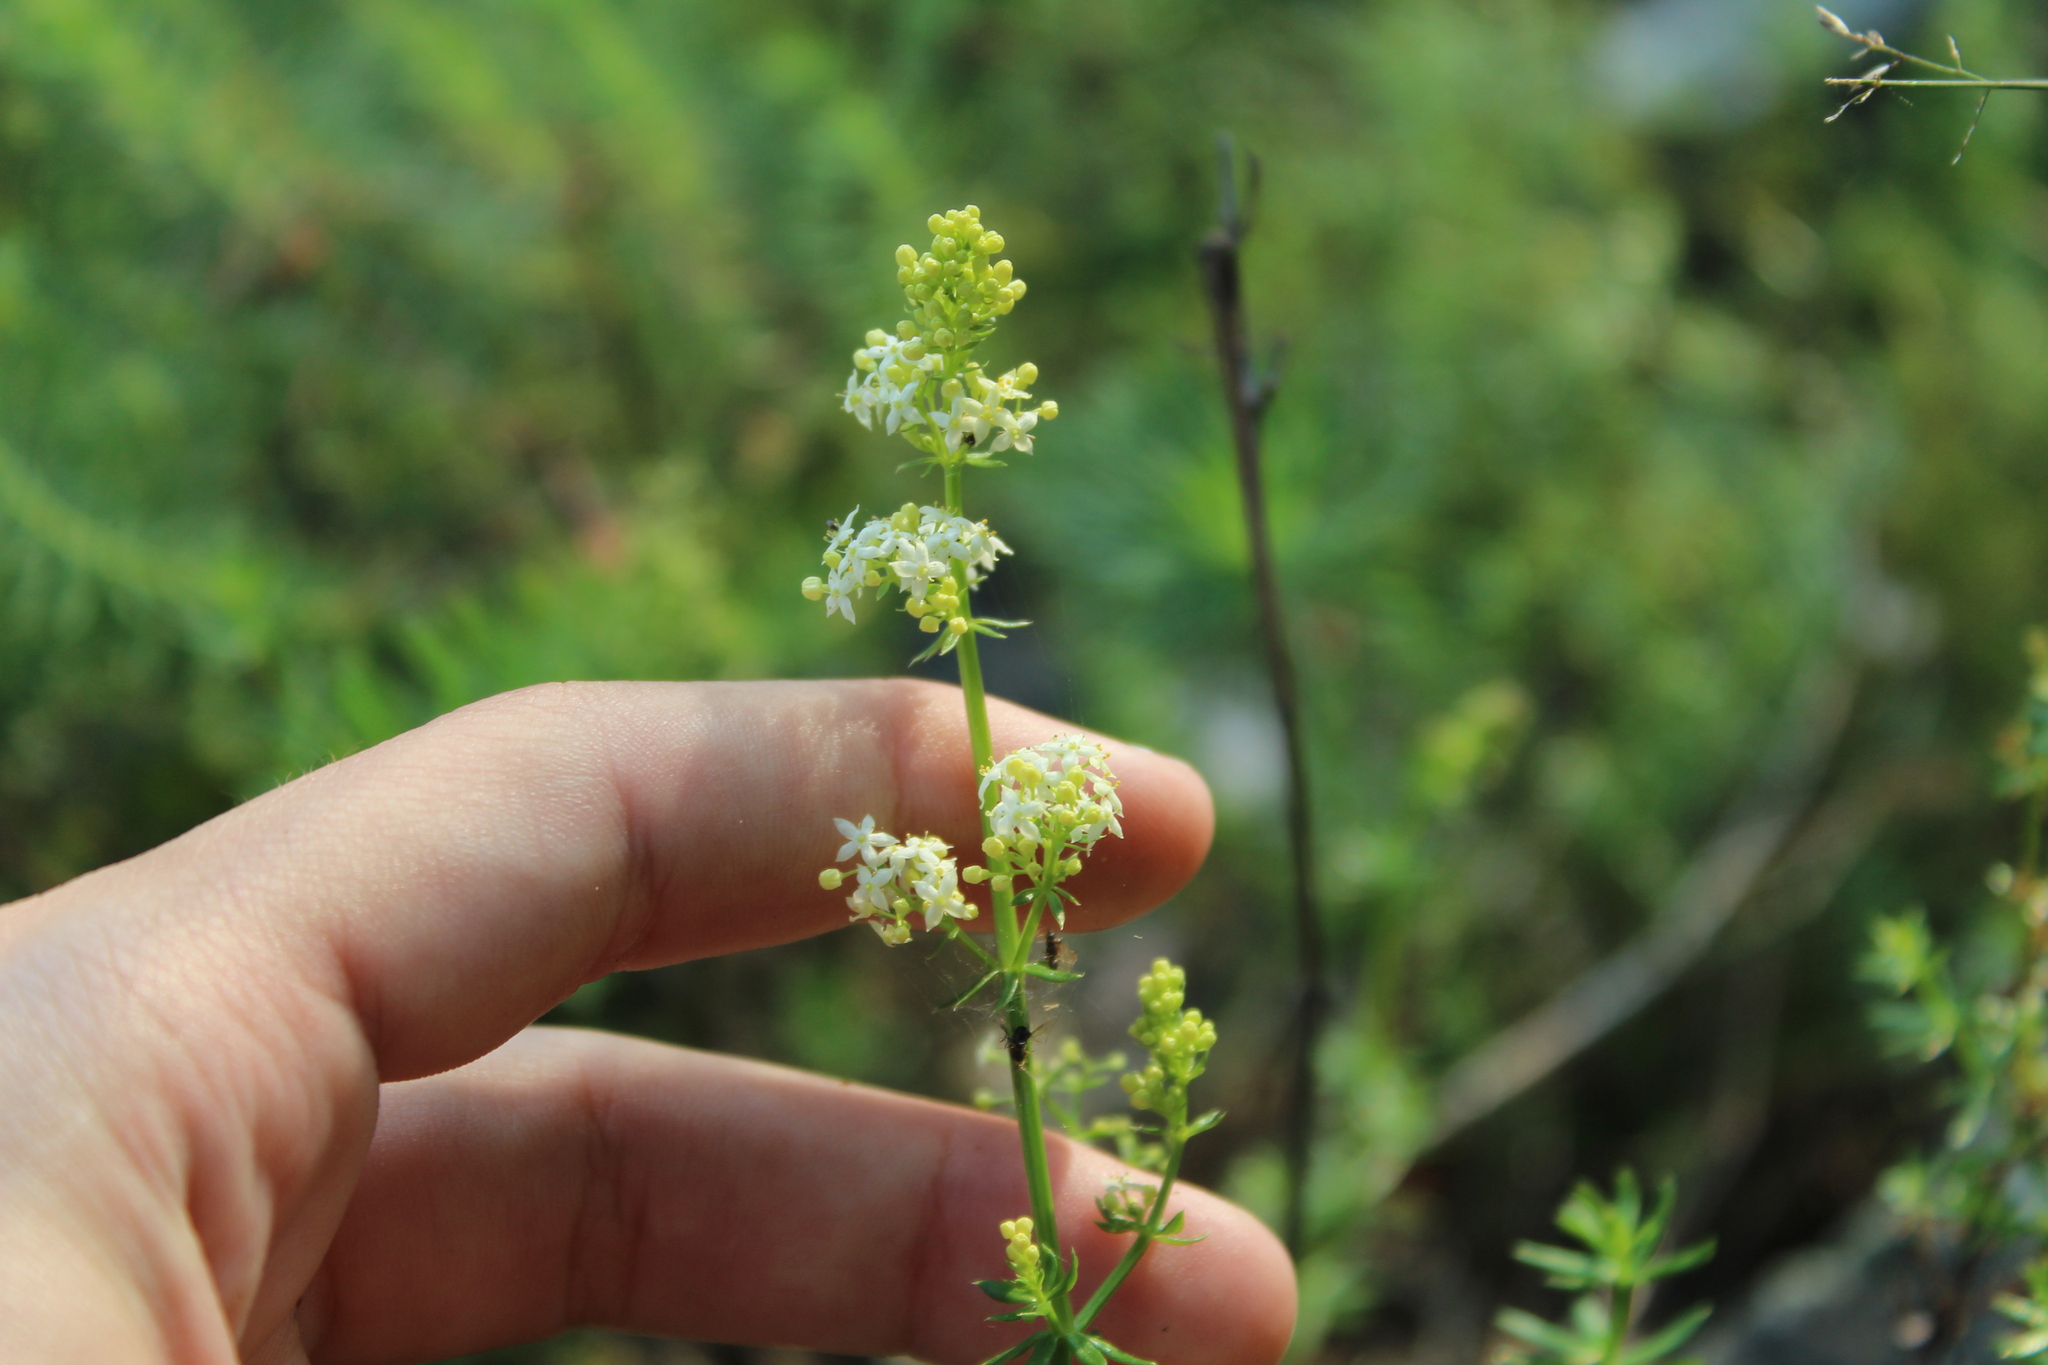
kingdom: Plantae
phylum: Tracheophyta
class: Magnoliopsida
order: Gentianales
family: Rubiaceae
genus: Galium
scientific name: Galium mollugo
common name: Hedge bedstraw
